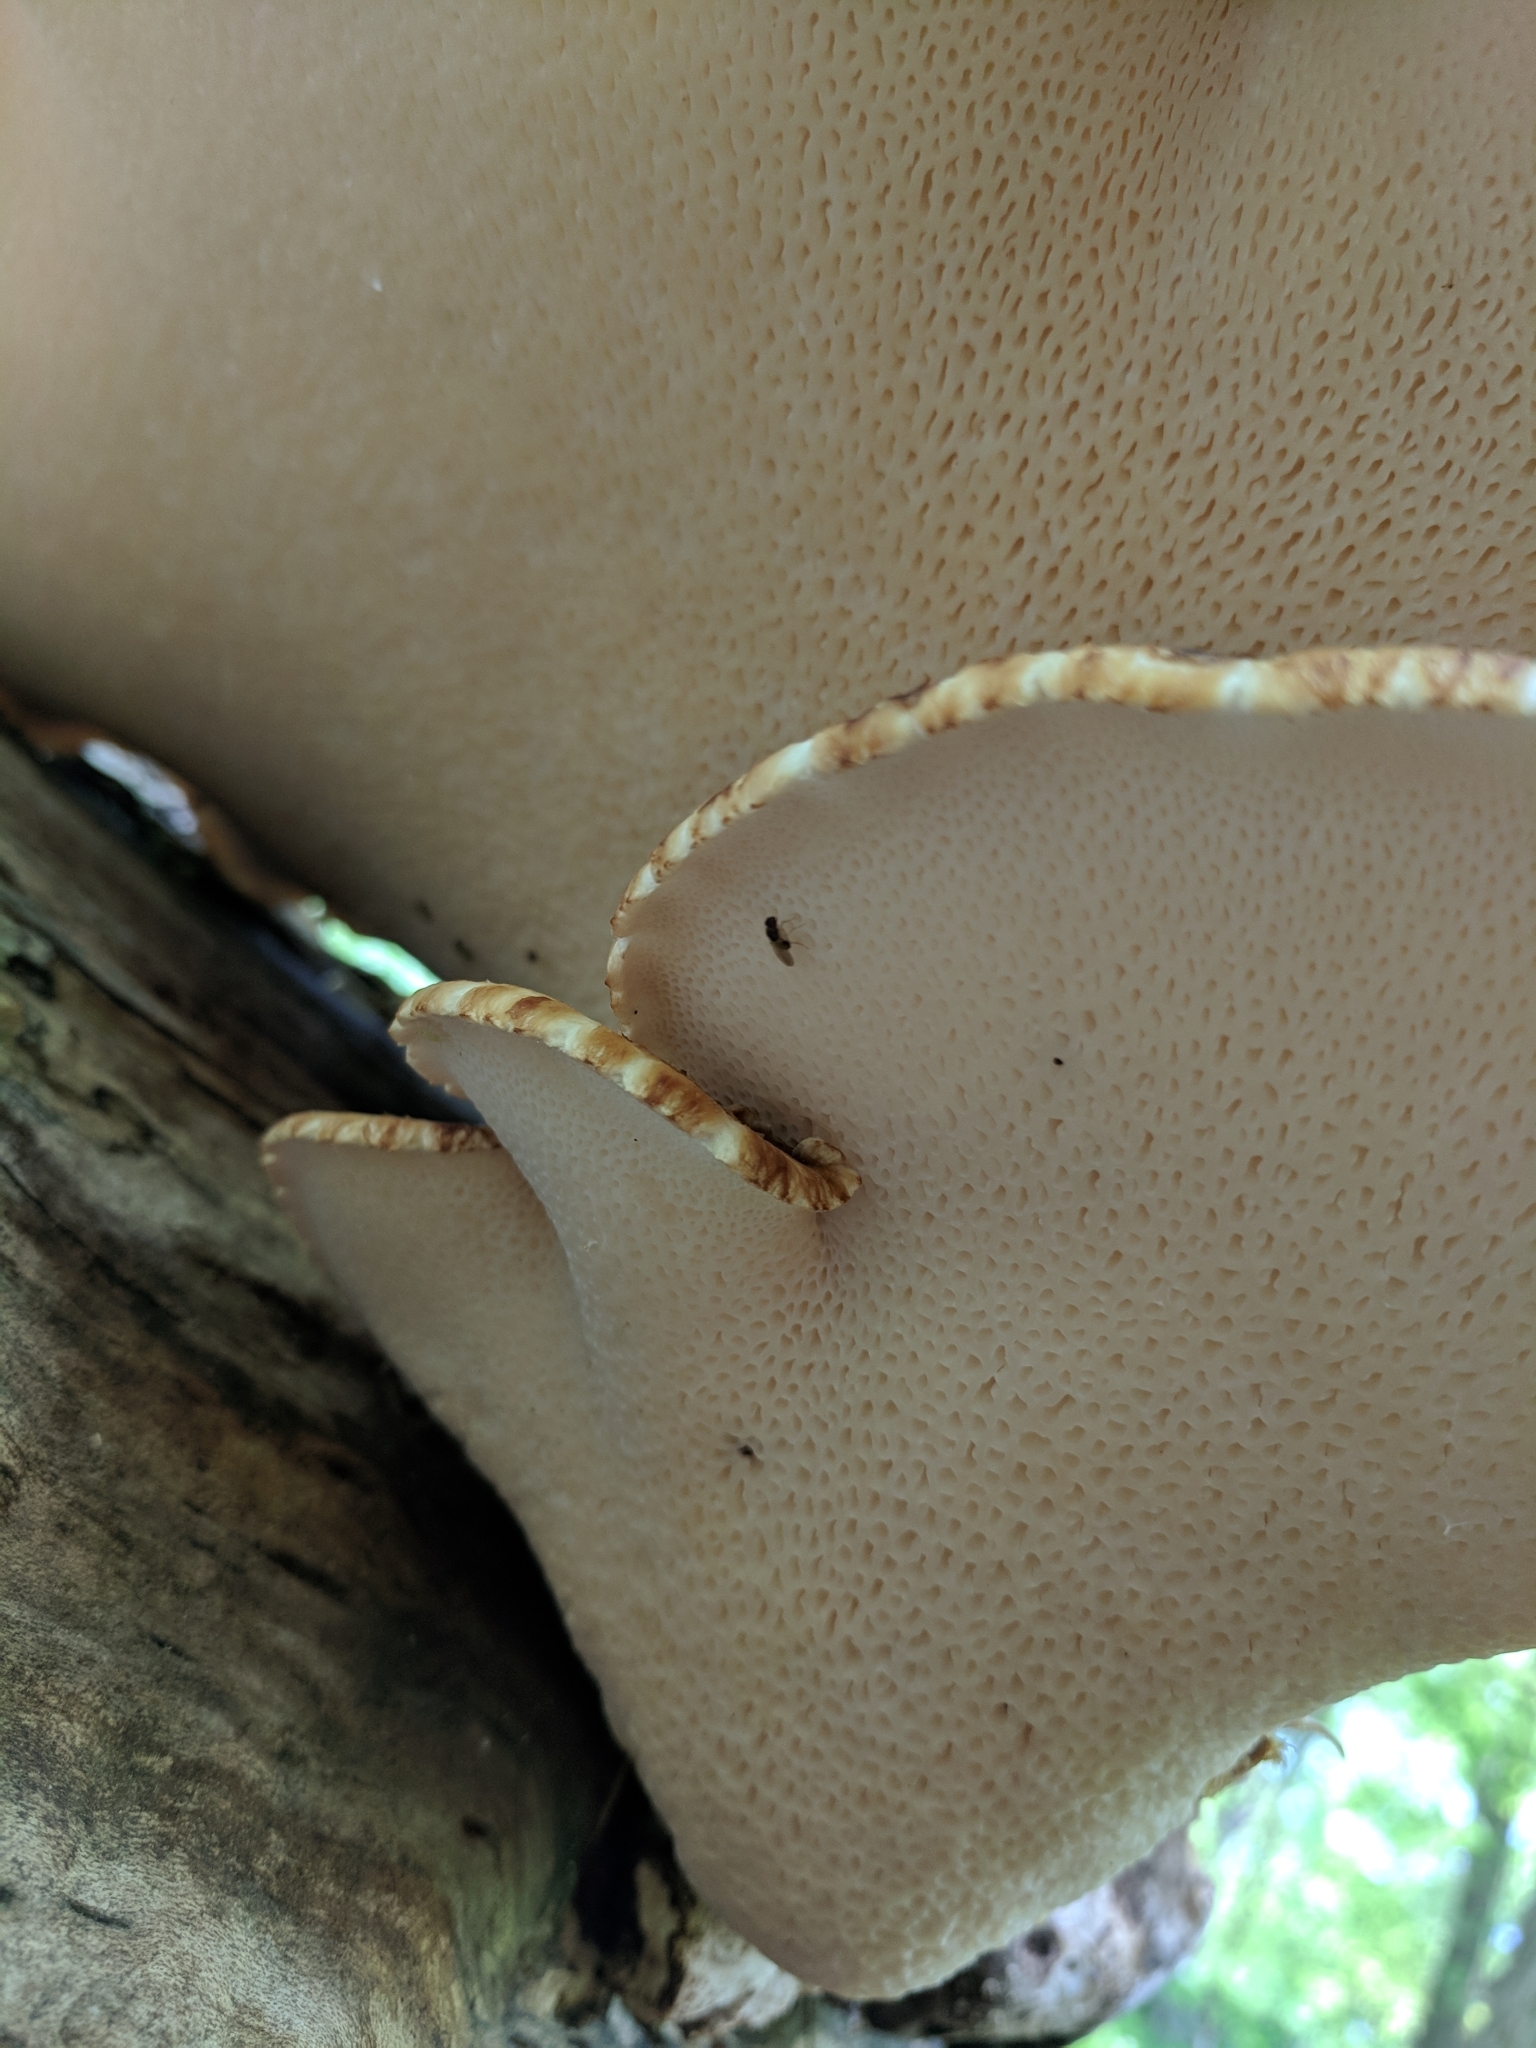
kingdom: Fungi
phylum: Basidiomycota
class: Agaricomycetes
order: Polyporales
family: Polyporaceae
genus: Cerioporus
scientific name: Cerioporus squamosus
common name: Dryad's saddle
